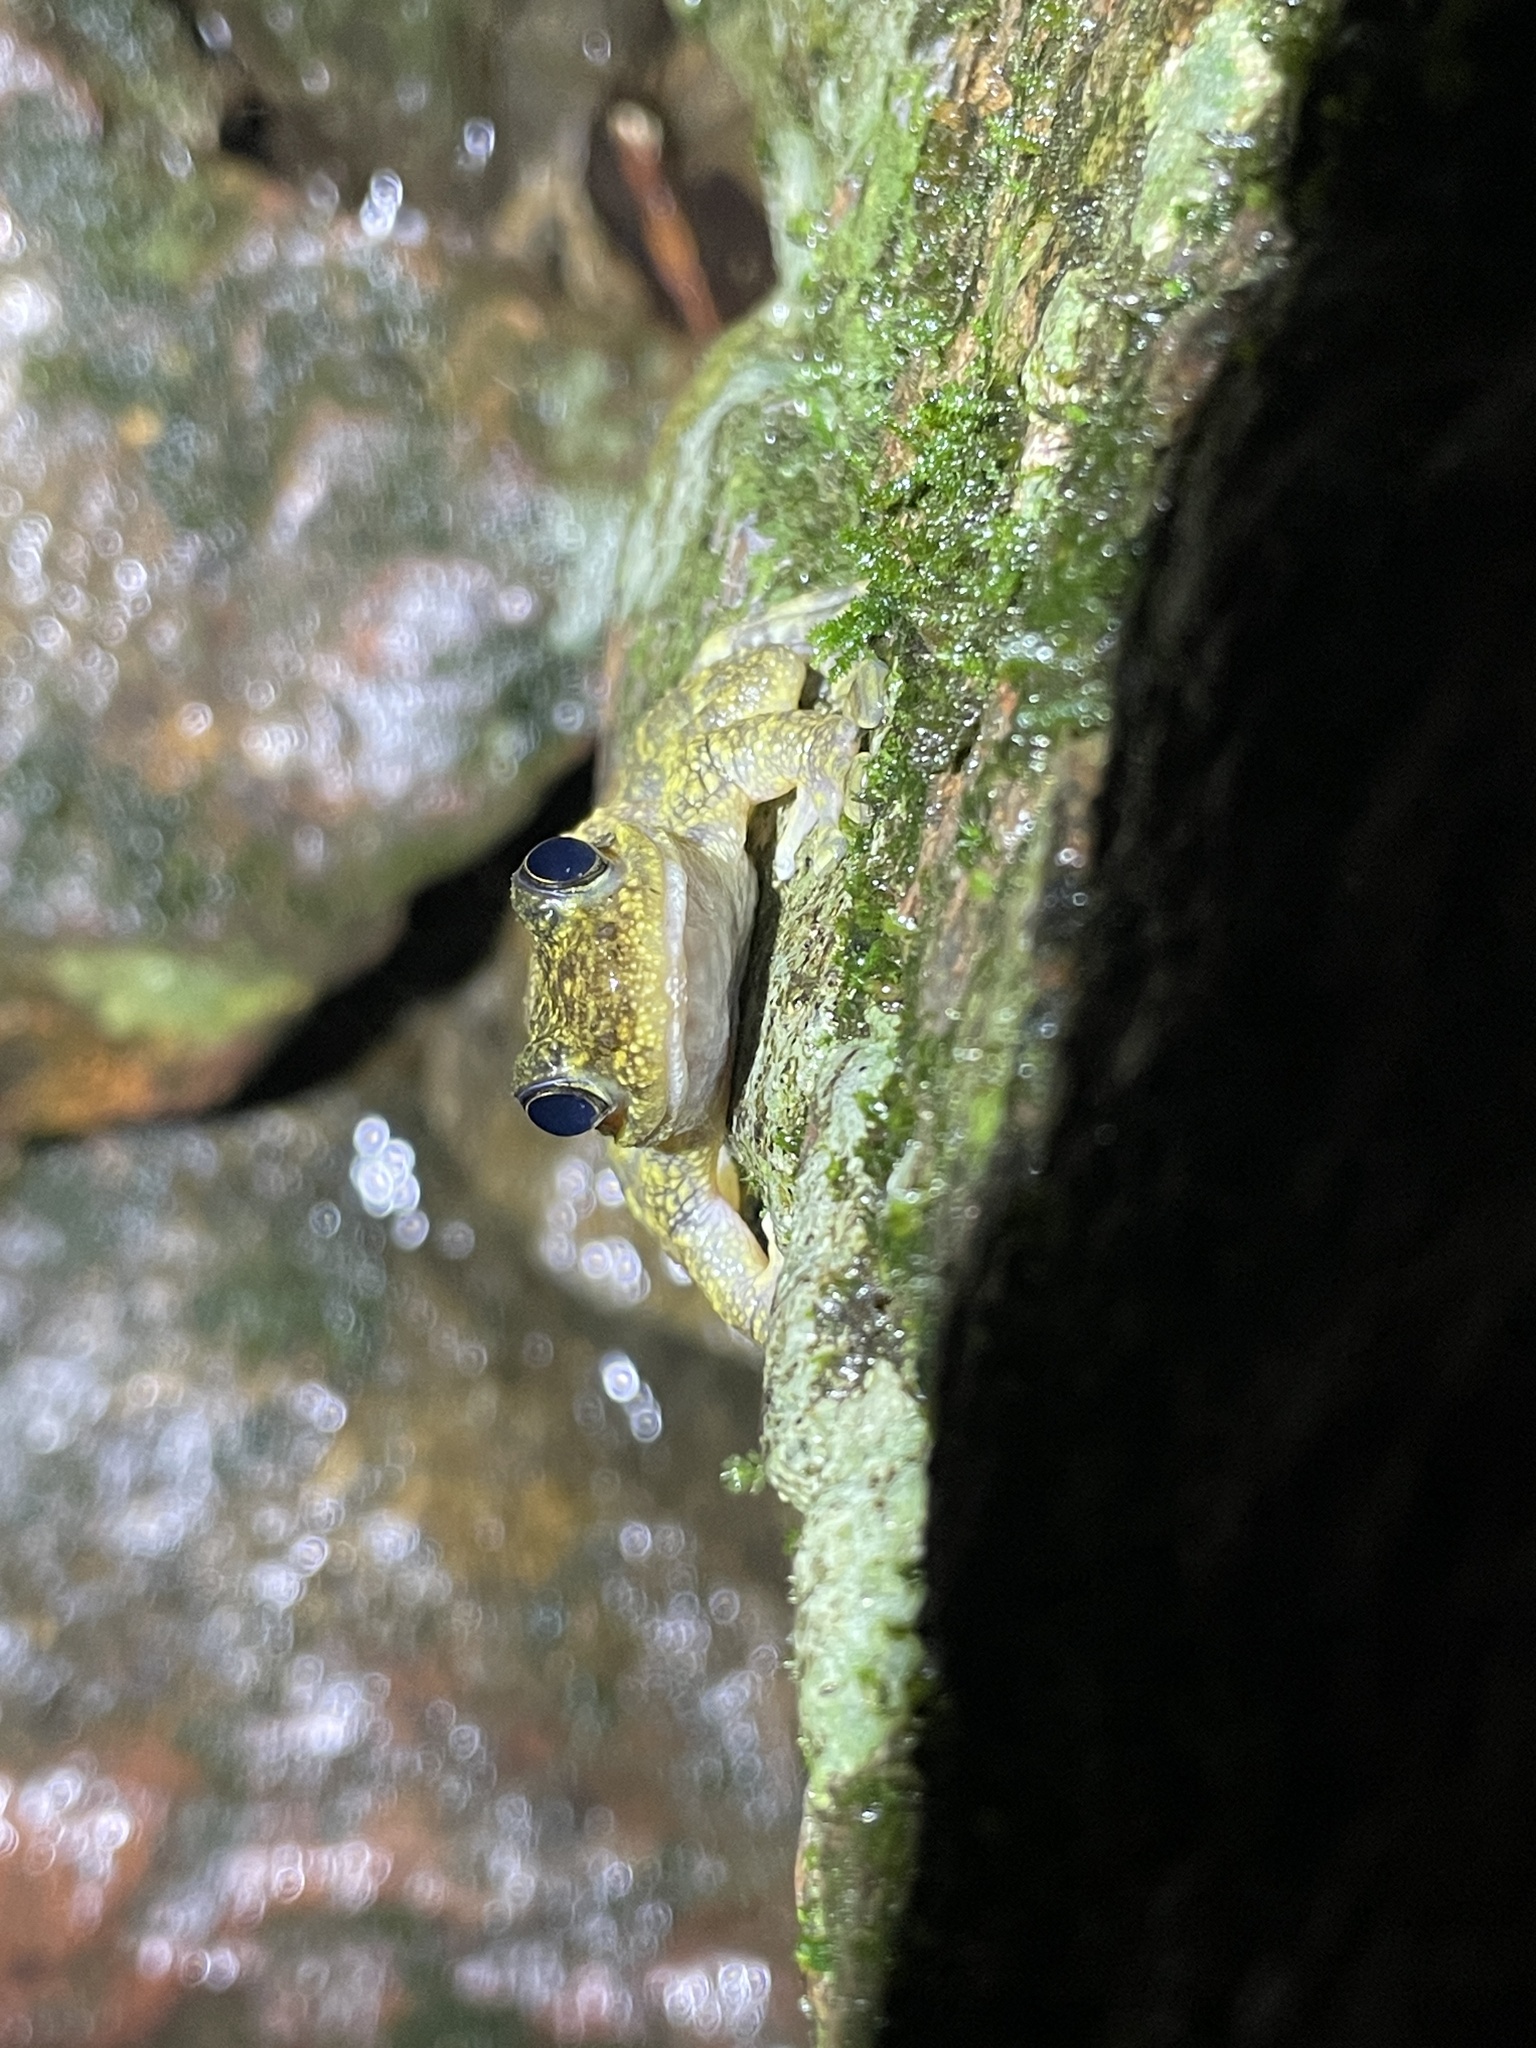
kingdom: Animalia
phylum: Chordata
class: Amphibia
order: Anura
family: Ranidae
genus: Amolops
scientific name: Amolops hongkongensis
